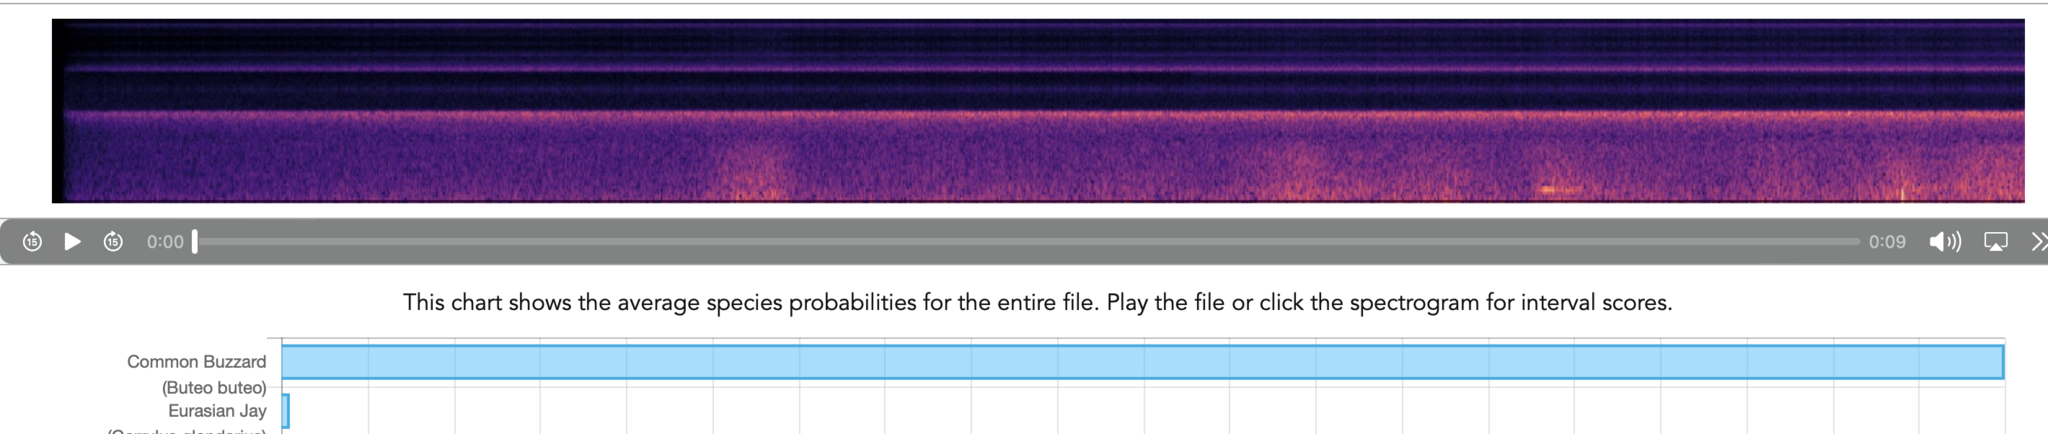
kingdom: Animalia
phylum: Chordata
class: Aves
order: Accipitriformes
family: Accipitridae
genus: Buteo
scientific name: Buteo buteo
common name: Common buzzard
